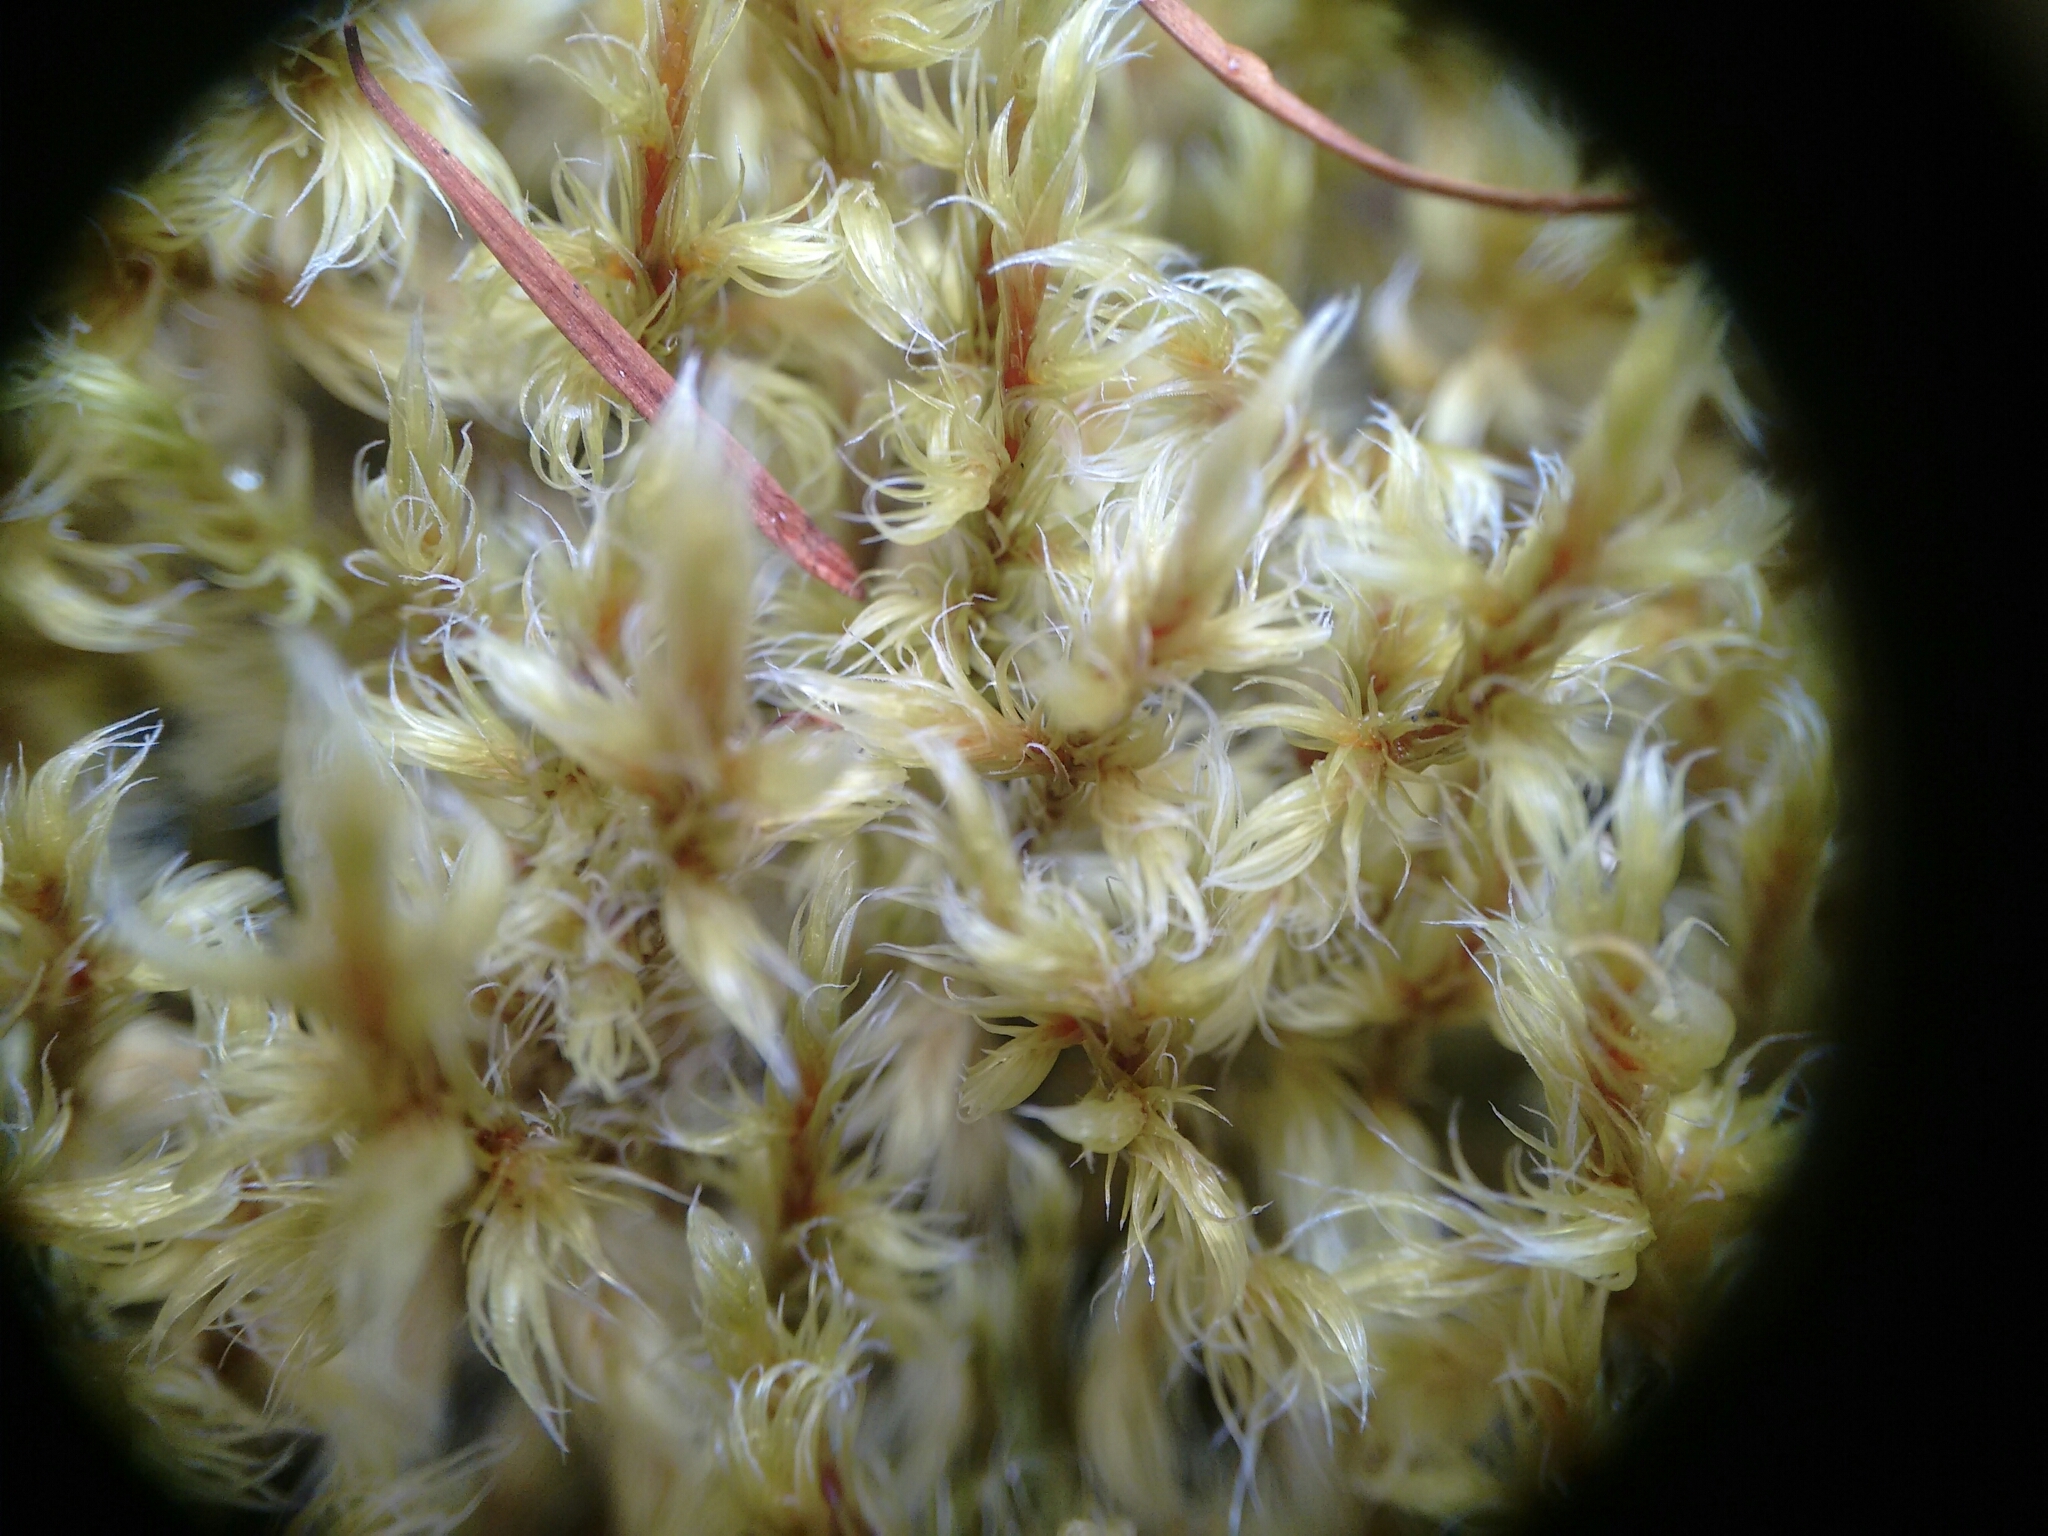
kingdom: Plantae
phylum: Bryophyta
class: Bryopsida
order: Grimmiales
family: Grimmiaceae
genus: Racomitrium
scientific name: Racomitrium lanuginosum
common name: Hoary rock moss
